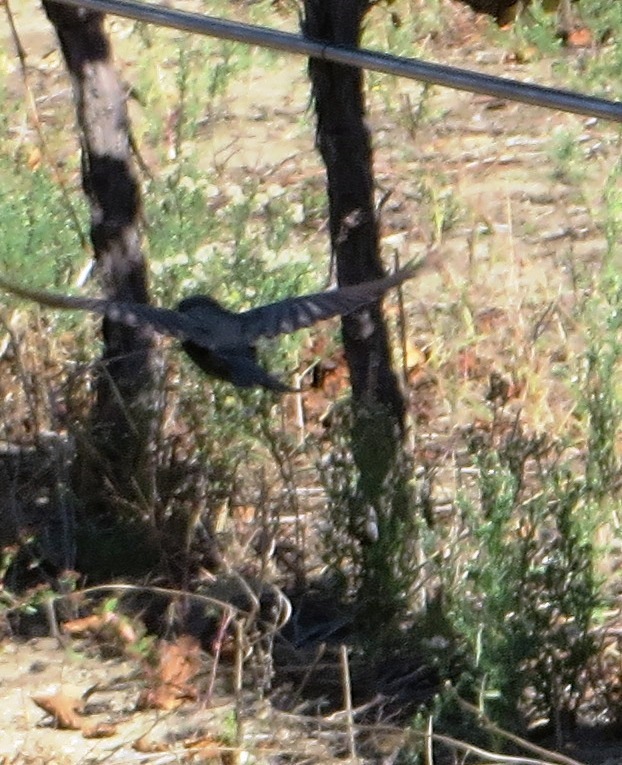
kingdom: Animalia
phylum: Chordata
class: Aves
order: Passeriformes
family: Dicruridae
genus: Dicrurus
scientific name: Dicrurus adsimilis
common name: Fork-tailed drongo
